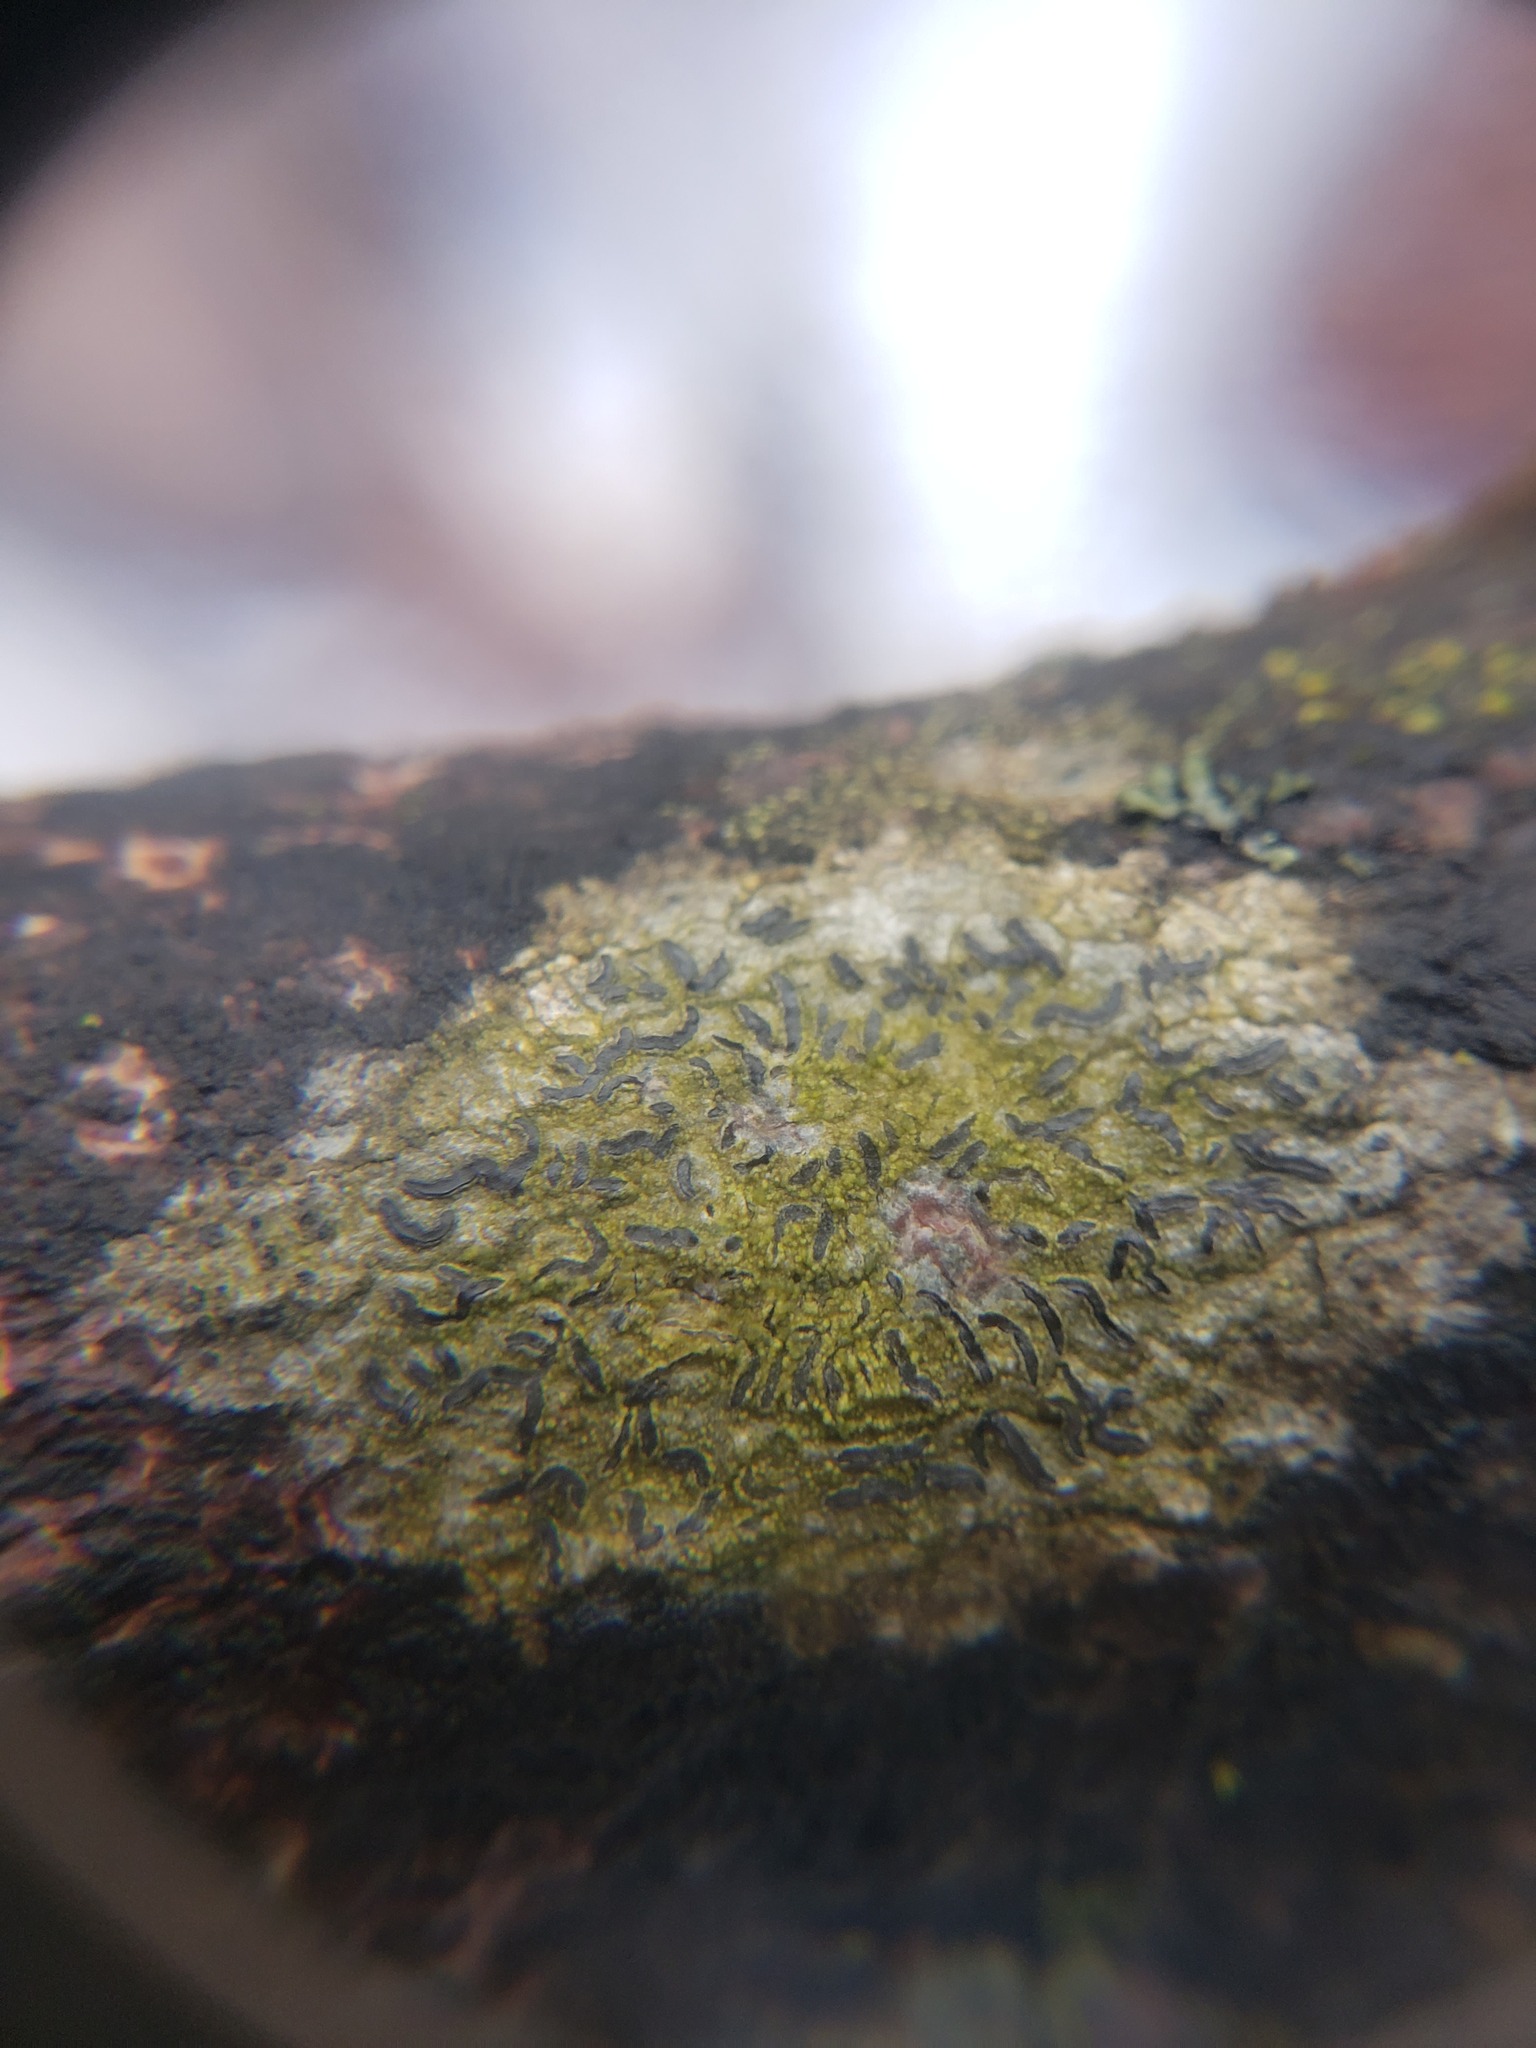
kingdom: Fungi
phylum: Ascomycota
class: Lecanoromycetes
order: Ostropales
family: Graphidaceae
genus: Graphis
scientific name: Graphis scripta
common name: Script lichen
